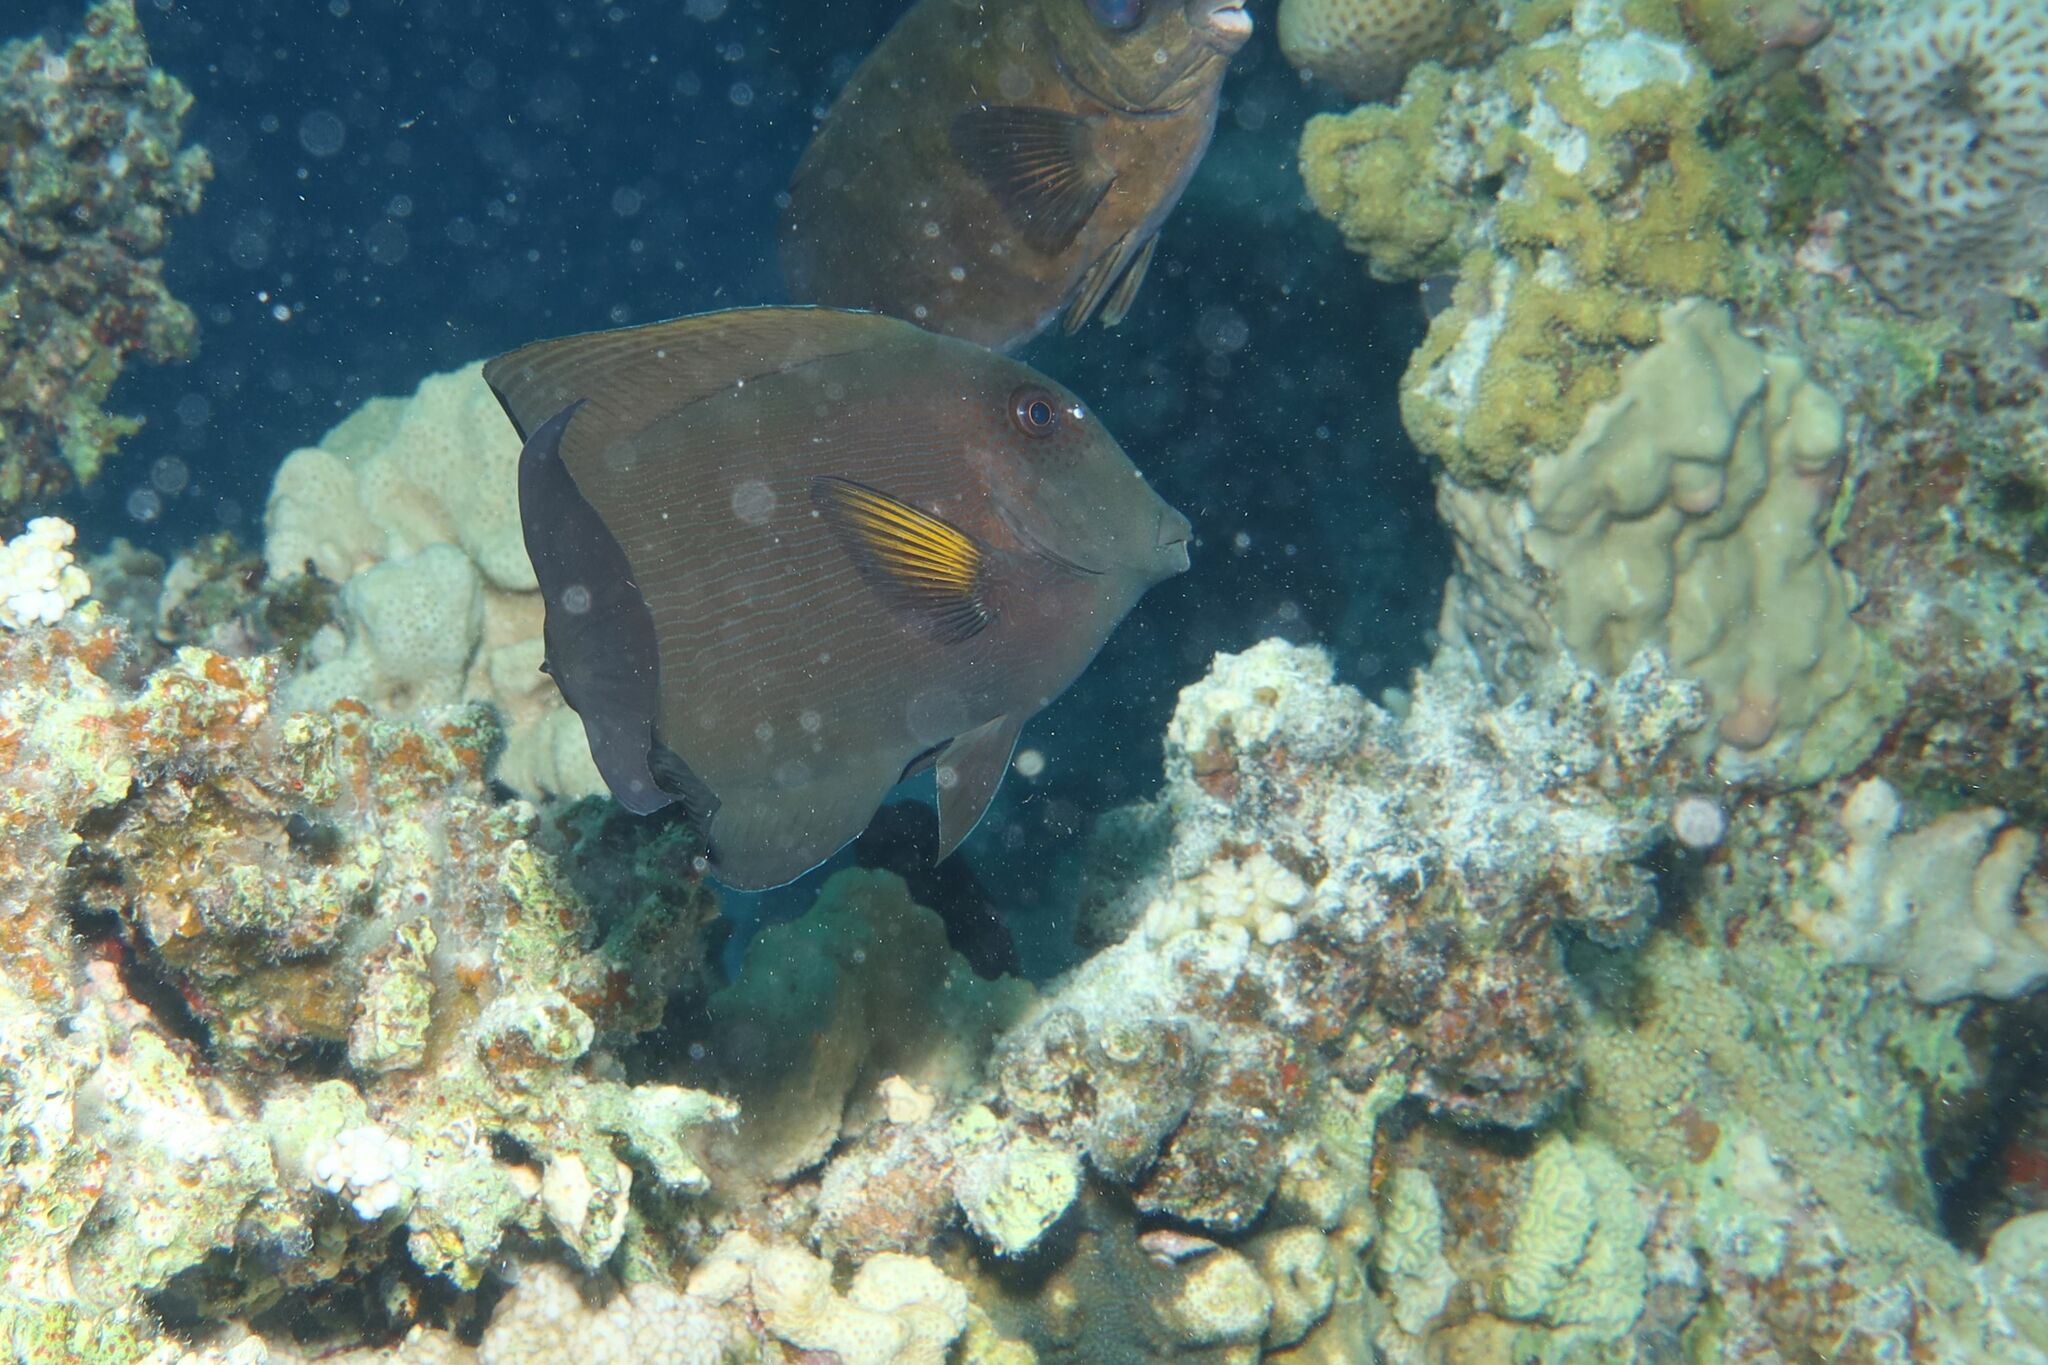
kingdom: Animalia
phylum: Chordata
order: Perciformes
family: Acanthuridae
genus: Ctenochaetus
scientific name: Ctenochaetus striatus
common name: Bristle-toothed surgeonfish
